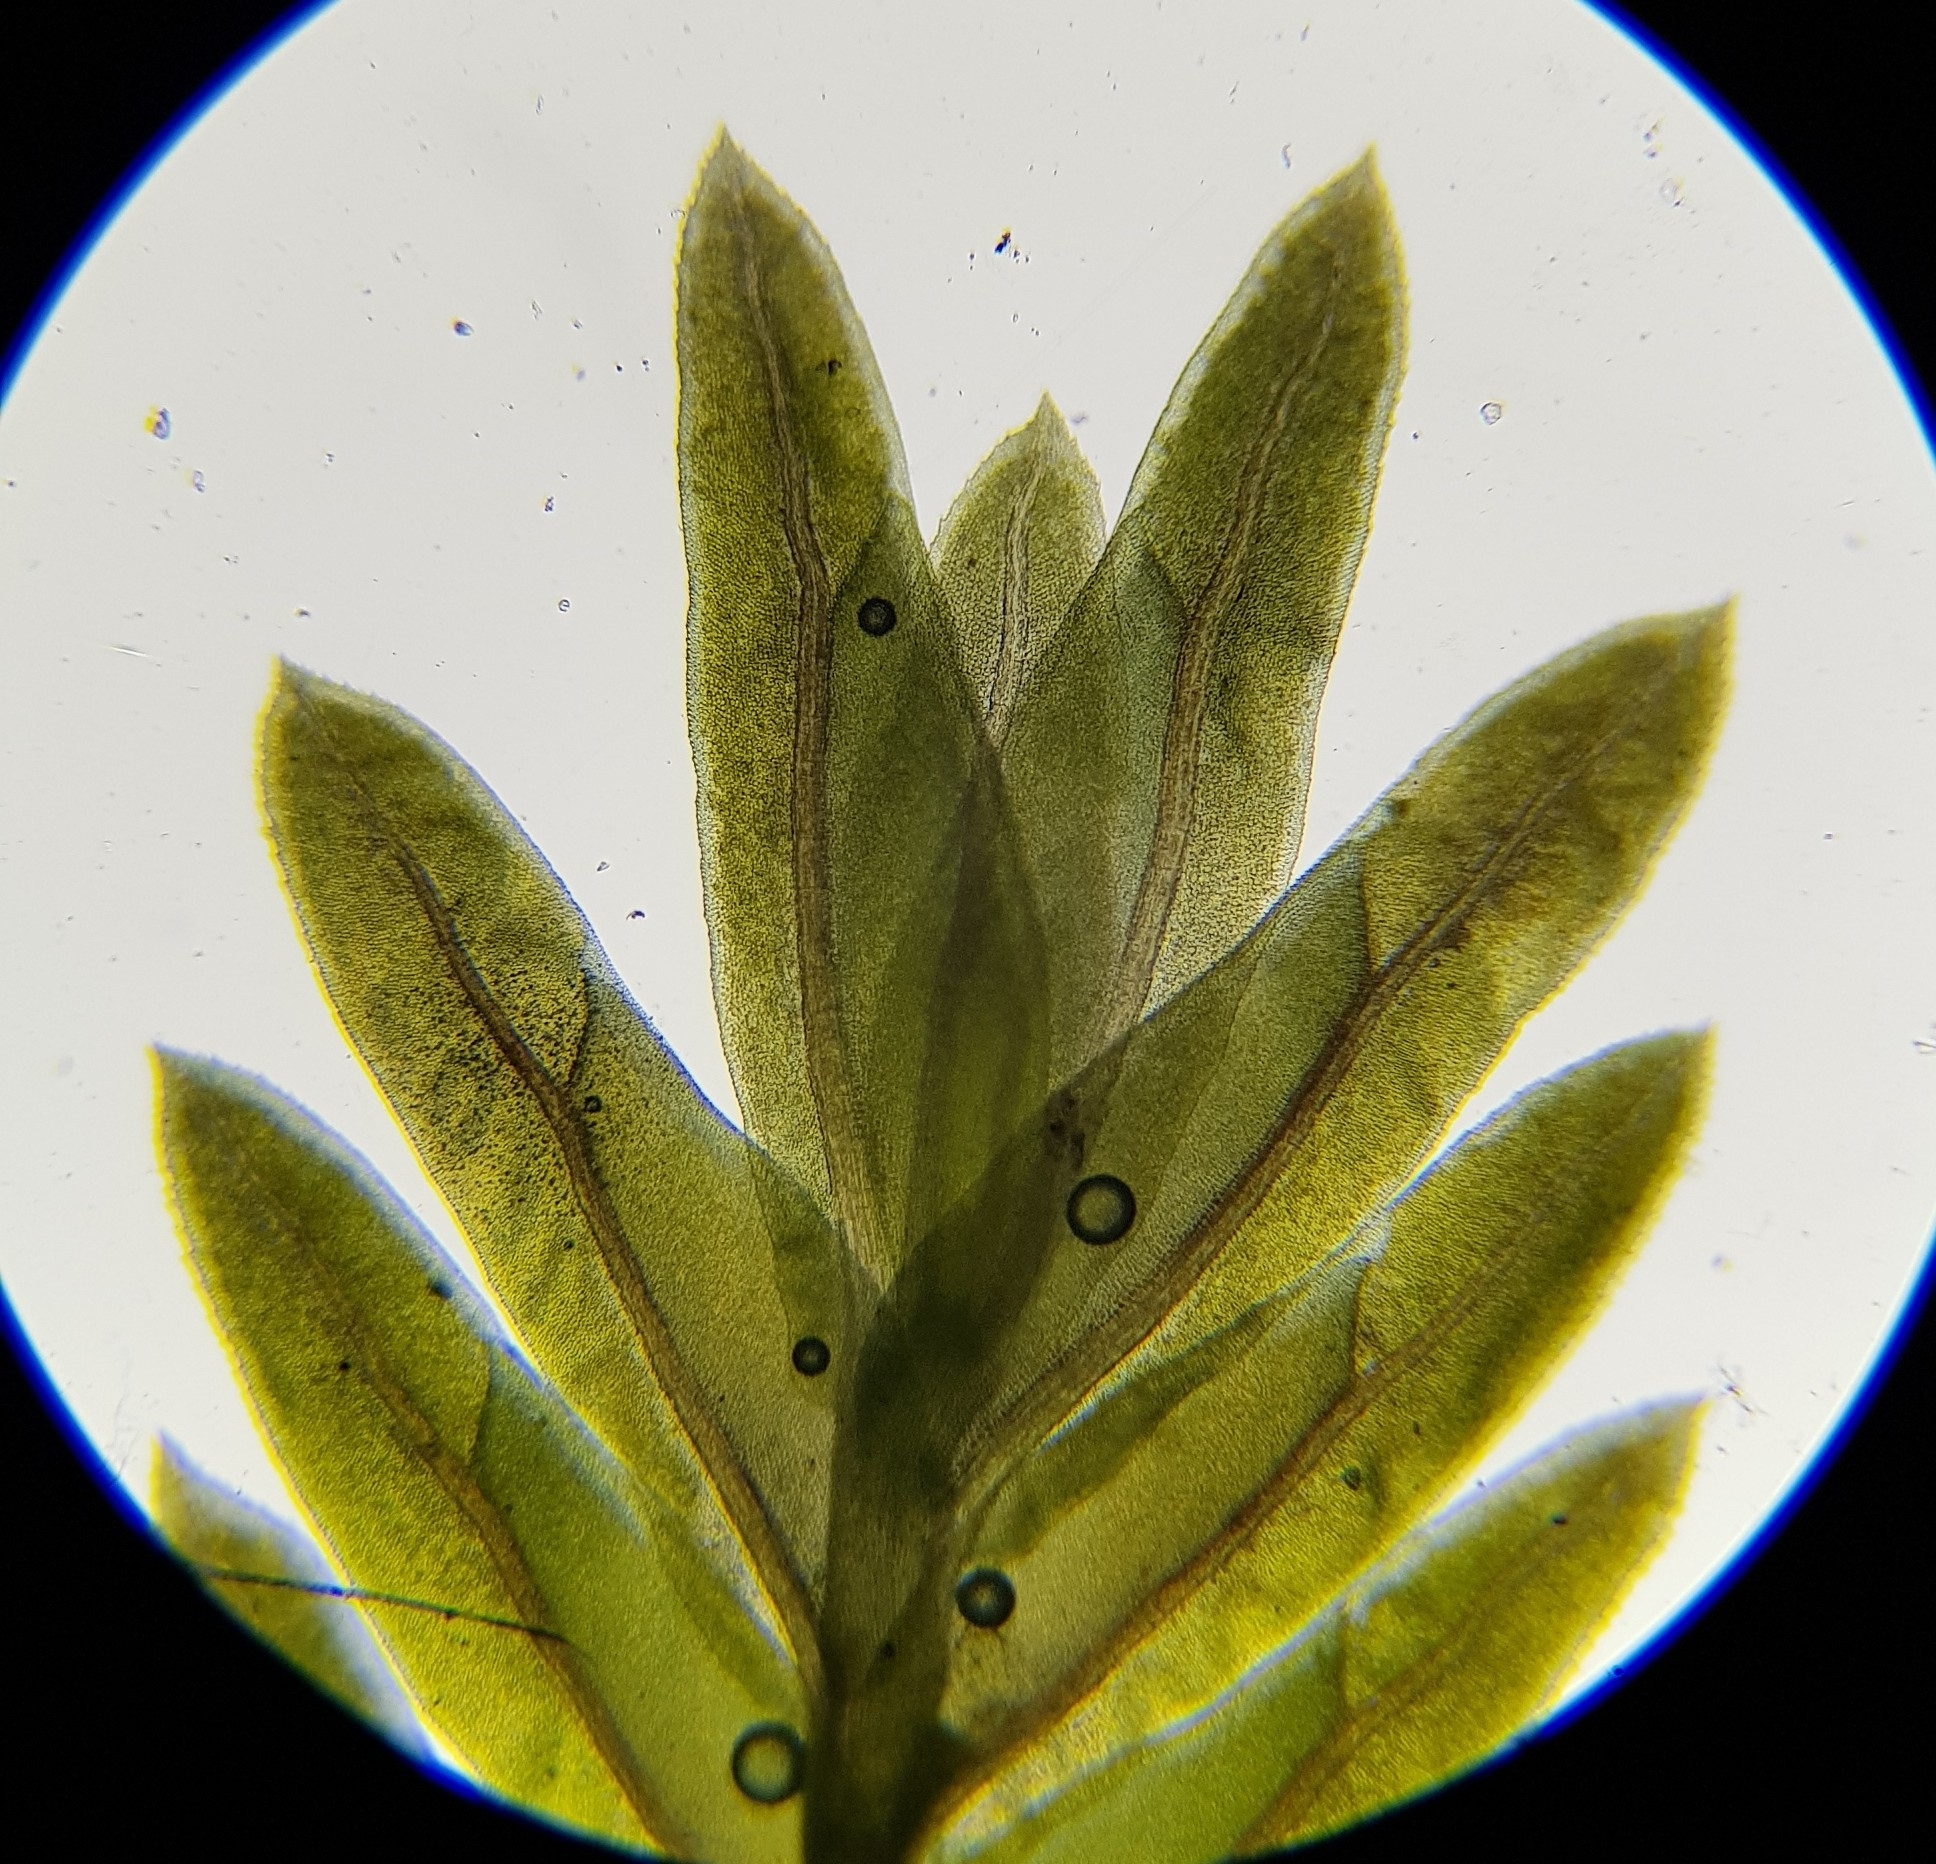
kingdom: Plantae
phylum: Bryophyta
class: Bryopsida
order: Dicranales
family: Fissidentaceae
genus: Fissidens
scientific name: Fissidens dubius
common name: Rock pocket moss
